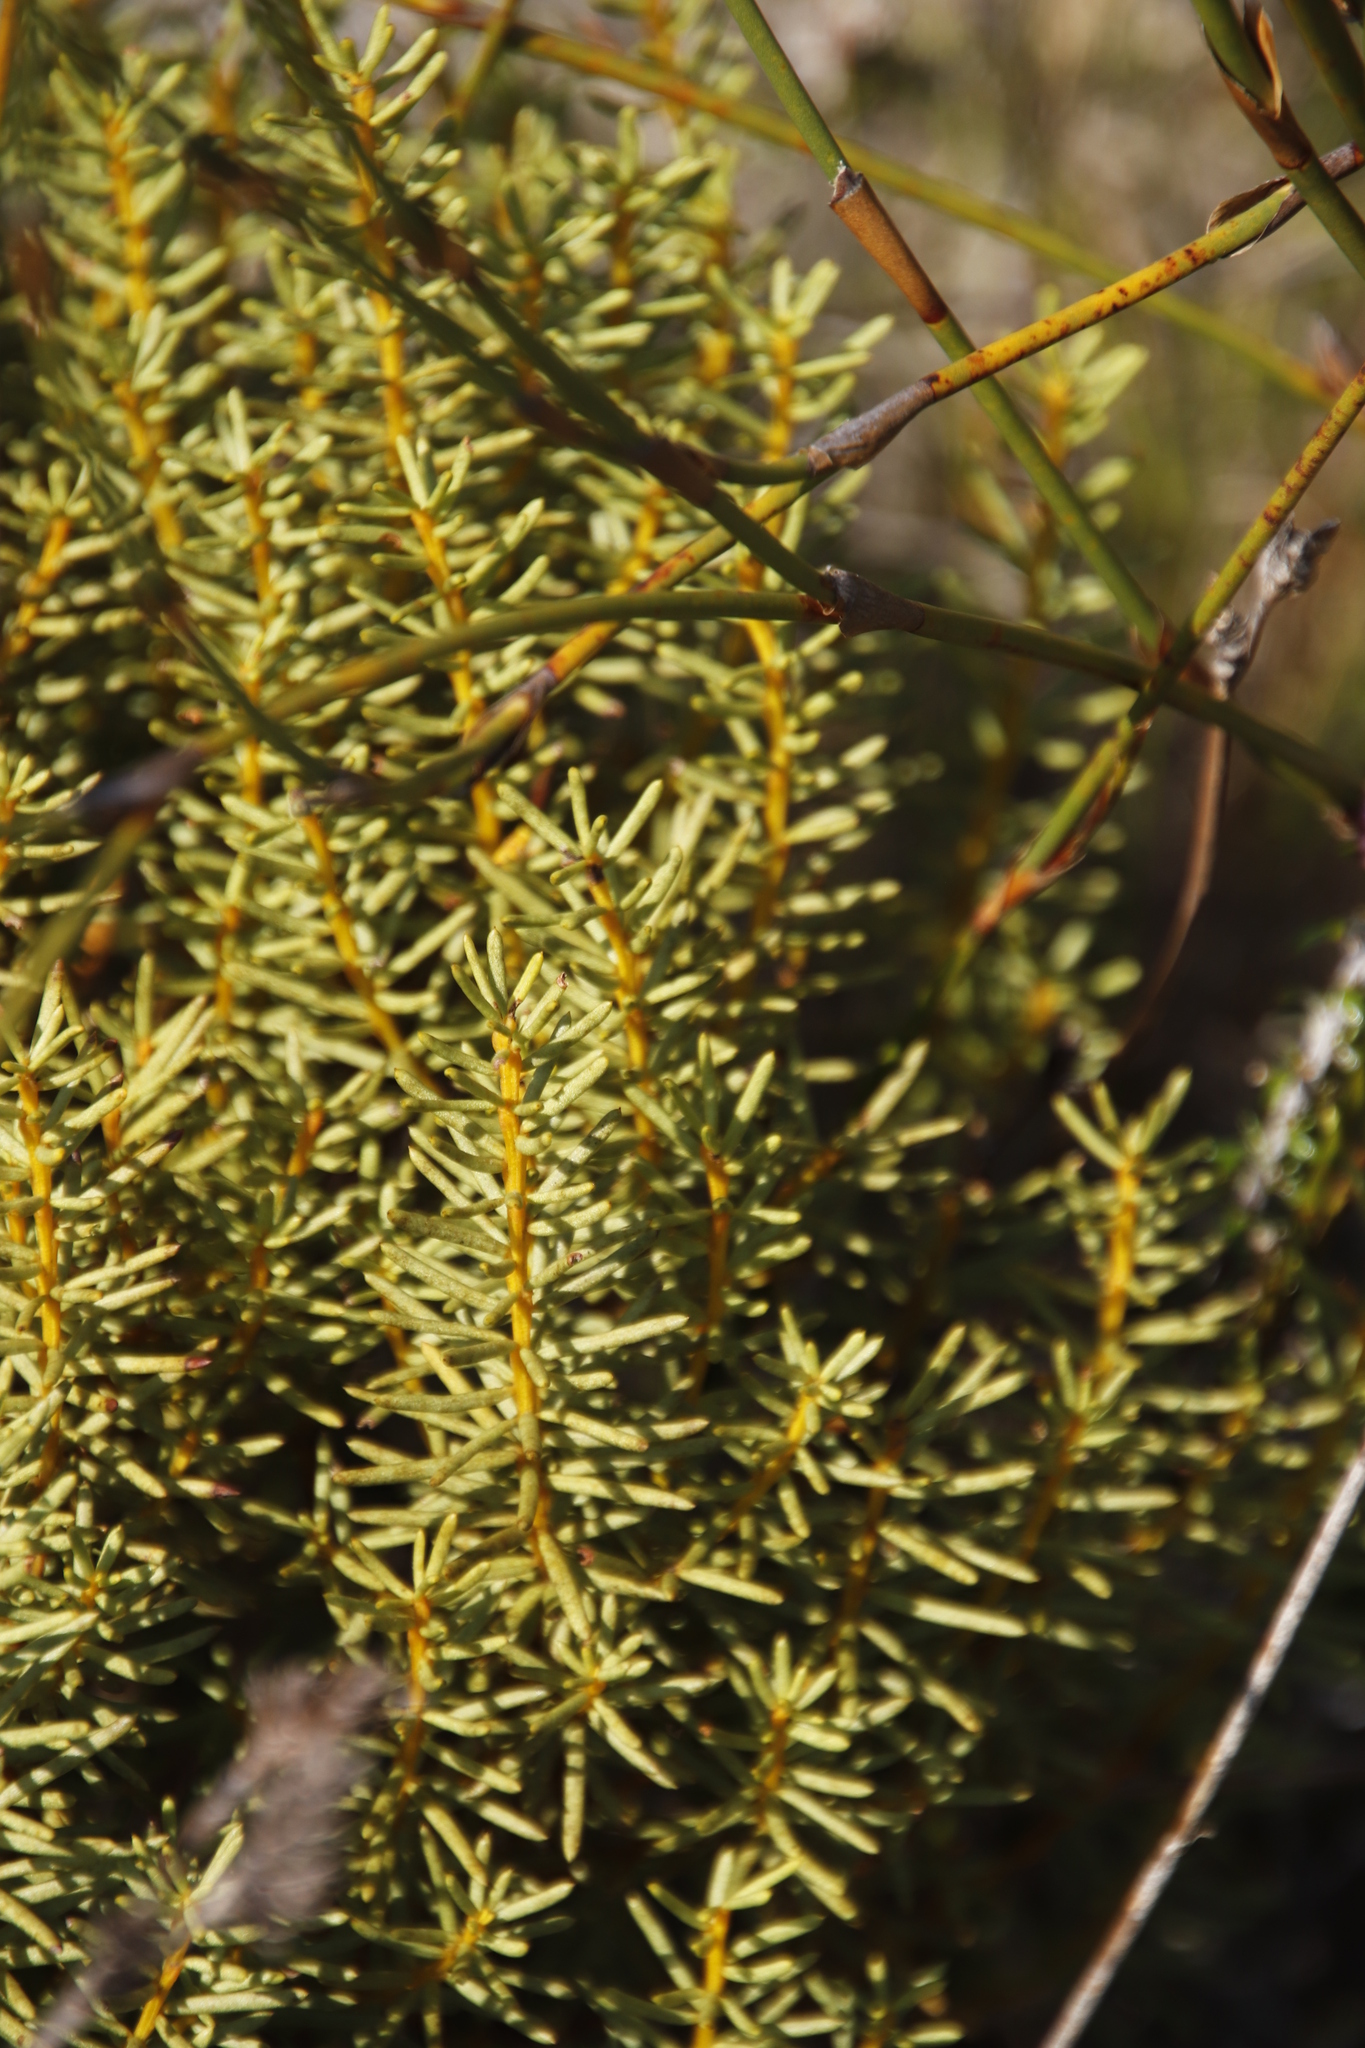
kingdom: Plantae
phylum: Tracheophyta
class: Magnoliopsida
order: Fabales
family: Fabaceae
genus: Cyclopia
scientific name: Cyclopia genistoides
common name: Honeybush tea
